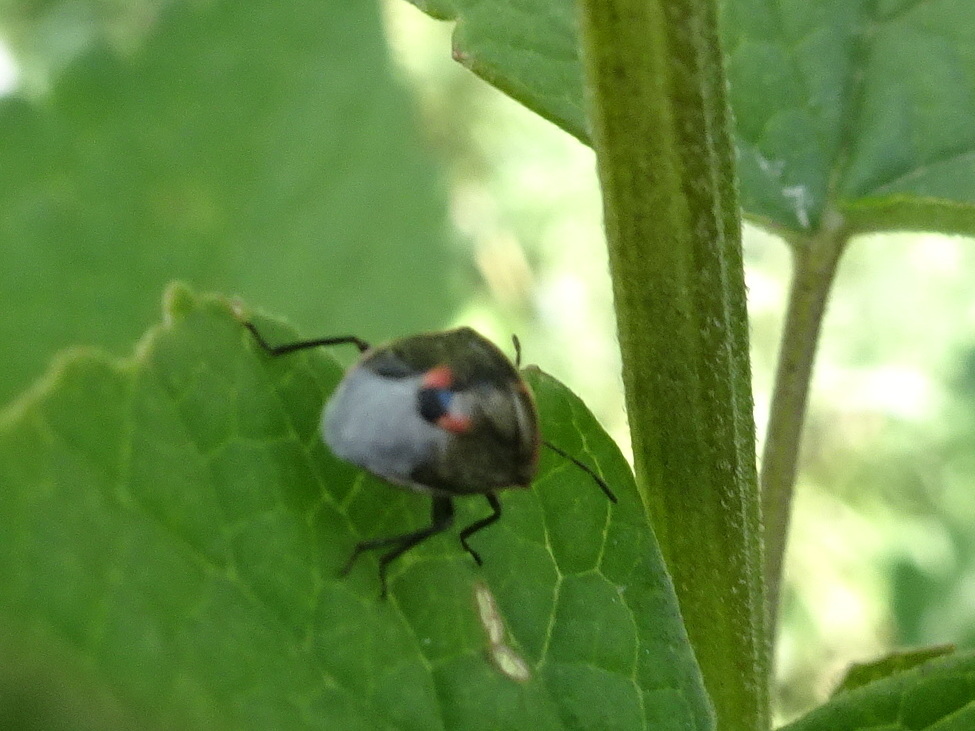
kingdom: Animalia
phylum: Arthropoda
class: Insecta
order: Hemiptera
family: Pentatomidae
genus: Cosmopepla
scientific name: Cosmopepla lintneriana
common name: Twice-stabbed stink bug
